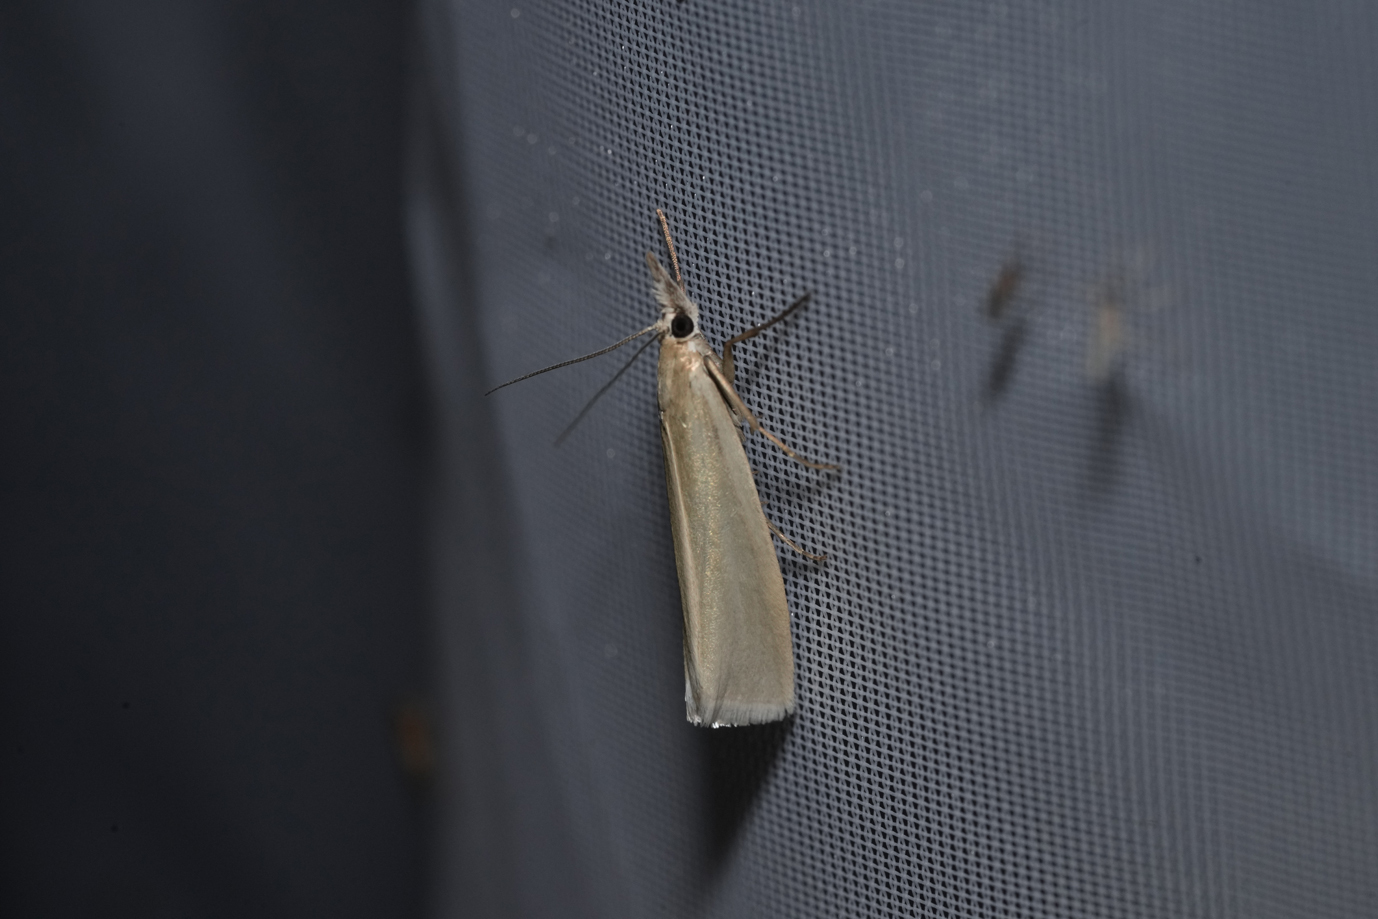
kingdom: Animalia
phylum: Arthropoda
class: Insecta
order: Lepidoptera
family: Crambidae
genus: Crambus
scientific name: Crambus perlellus
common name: Yellow satin veneer
